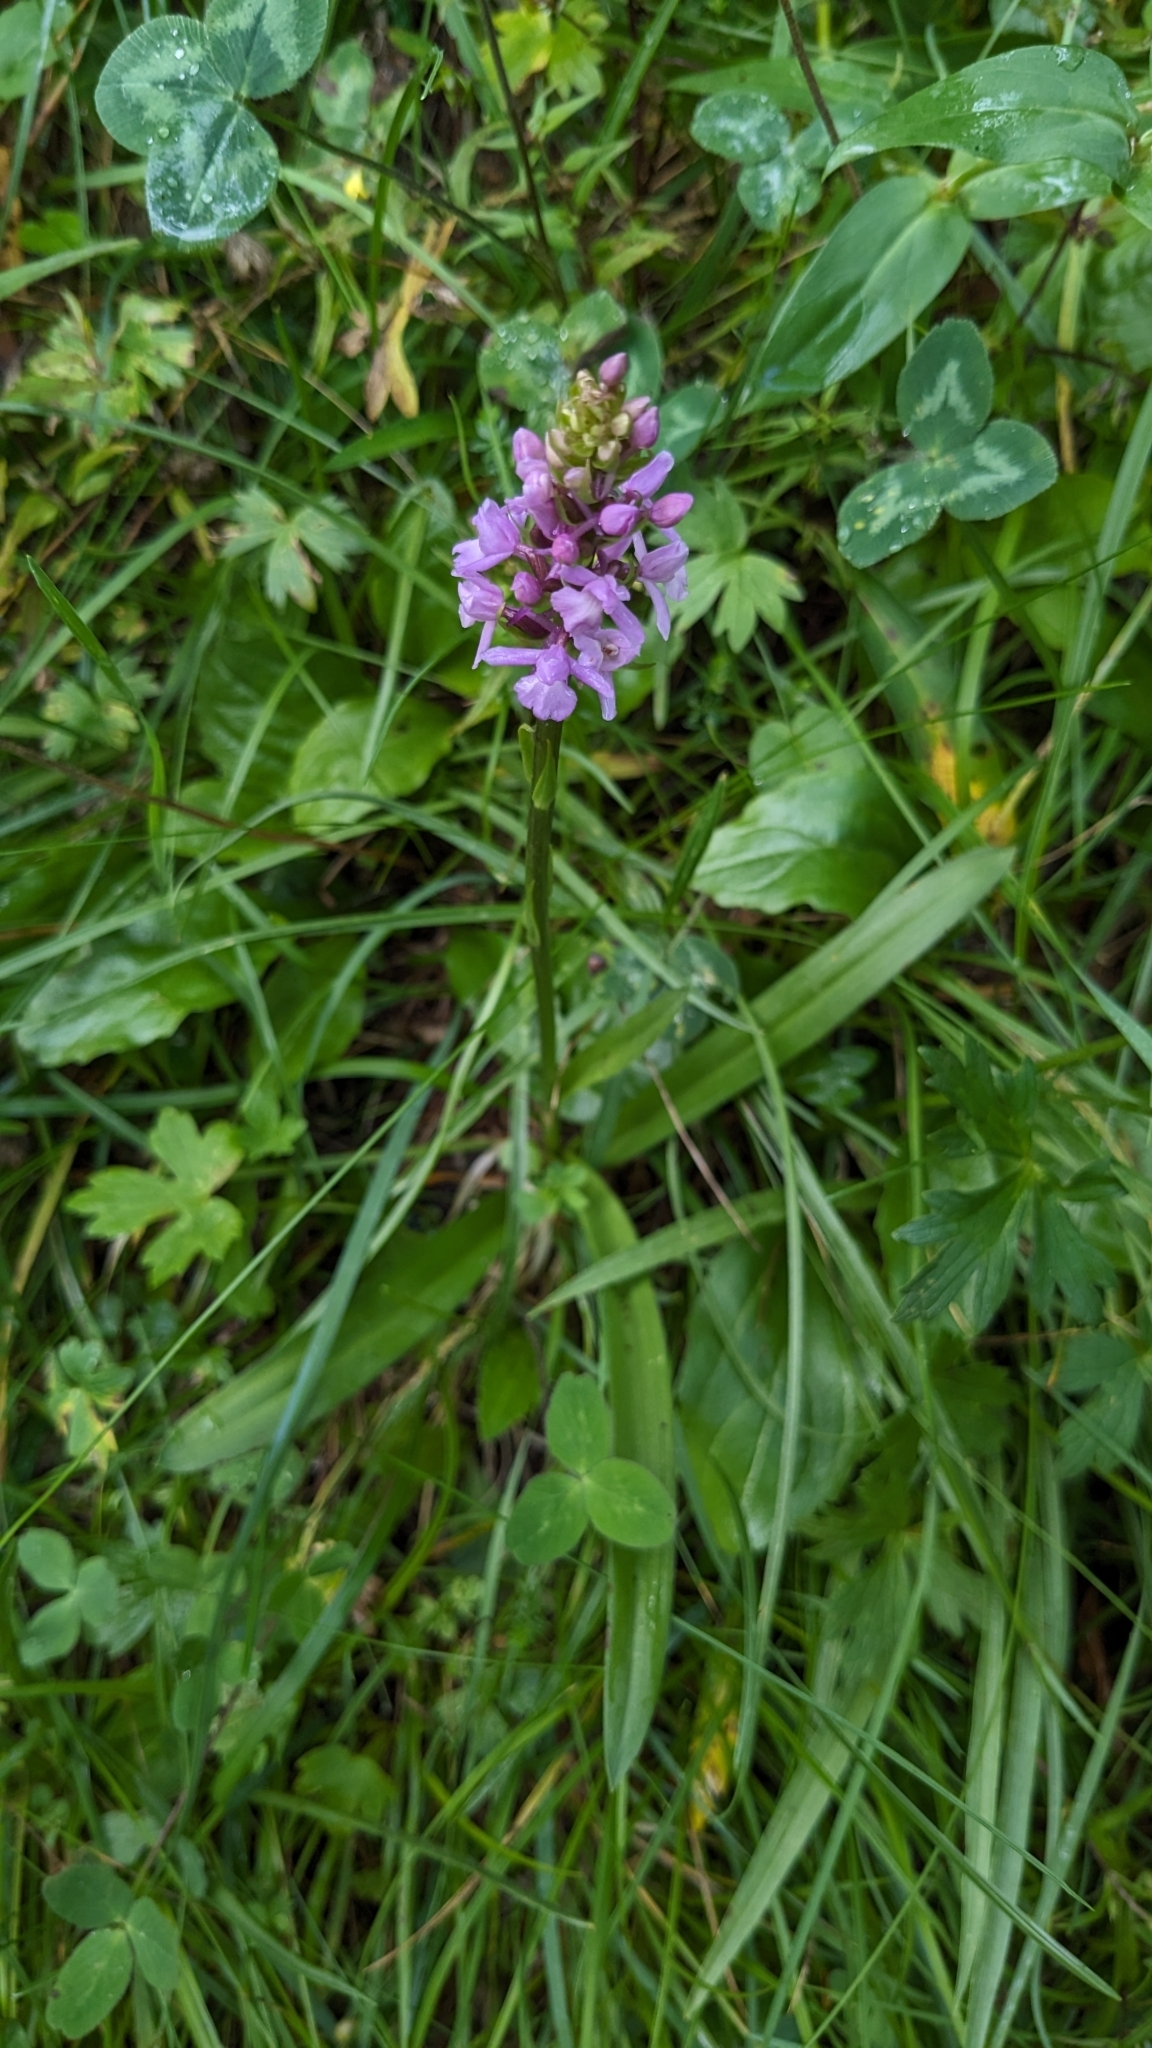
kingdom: Plantae
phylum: Tracheophyta
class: Liliopsida
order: Asparagales
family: Orchidaceae
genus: Gymnadenia
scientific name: Gymnadenia conopsea
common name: Fragrant orchid
